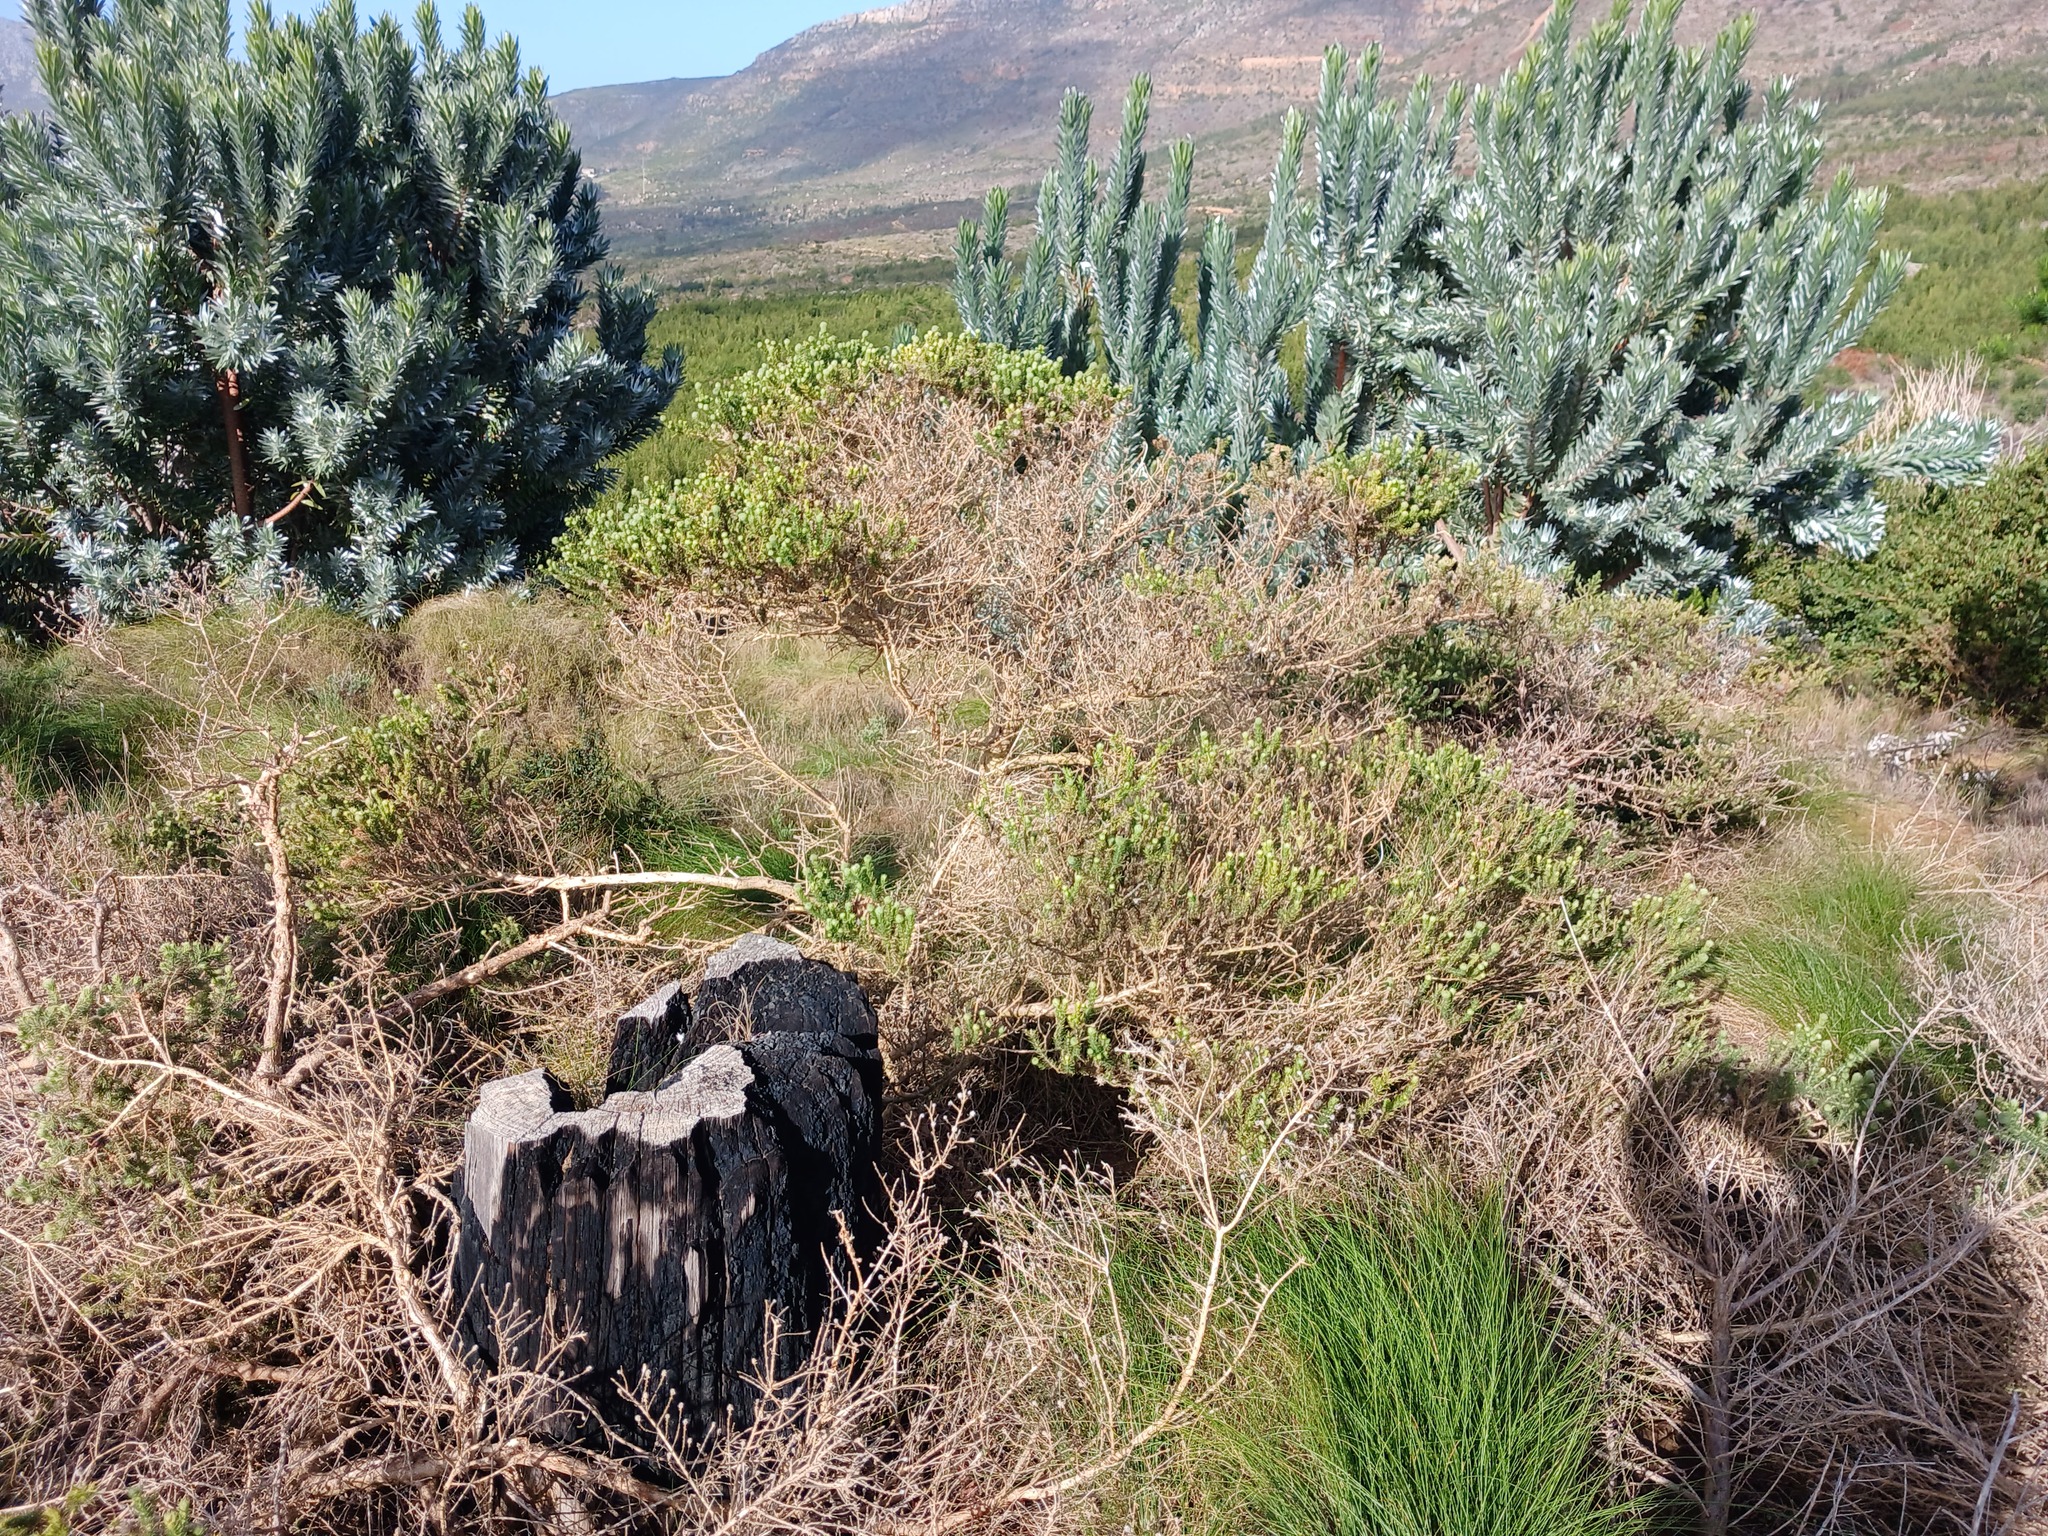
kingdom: Plantae
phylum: Tracheophyta
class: Magnoliopsida
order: Proteales
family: Proteaceae
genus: Leucadendron
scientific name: Leucadendron argenteum
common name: Cape silver tree
